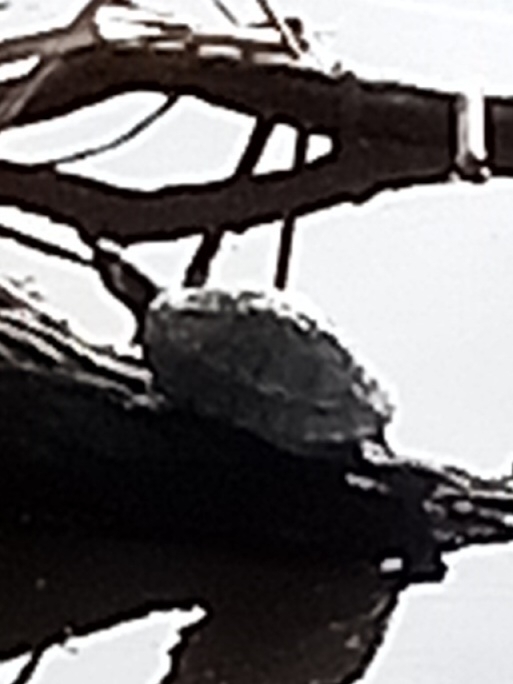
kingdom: Animalia
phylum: Chordata
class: Testudines
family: Emydidae
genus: Trachemys
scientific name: Trachemys scripta
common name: Slider
